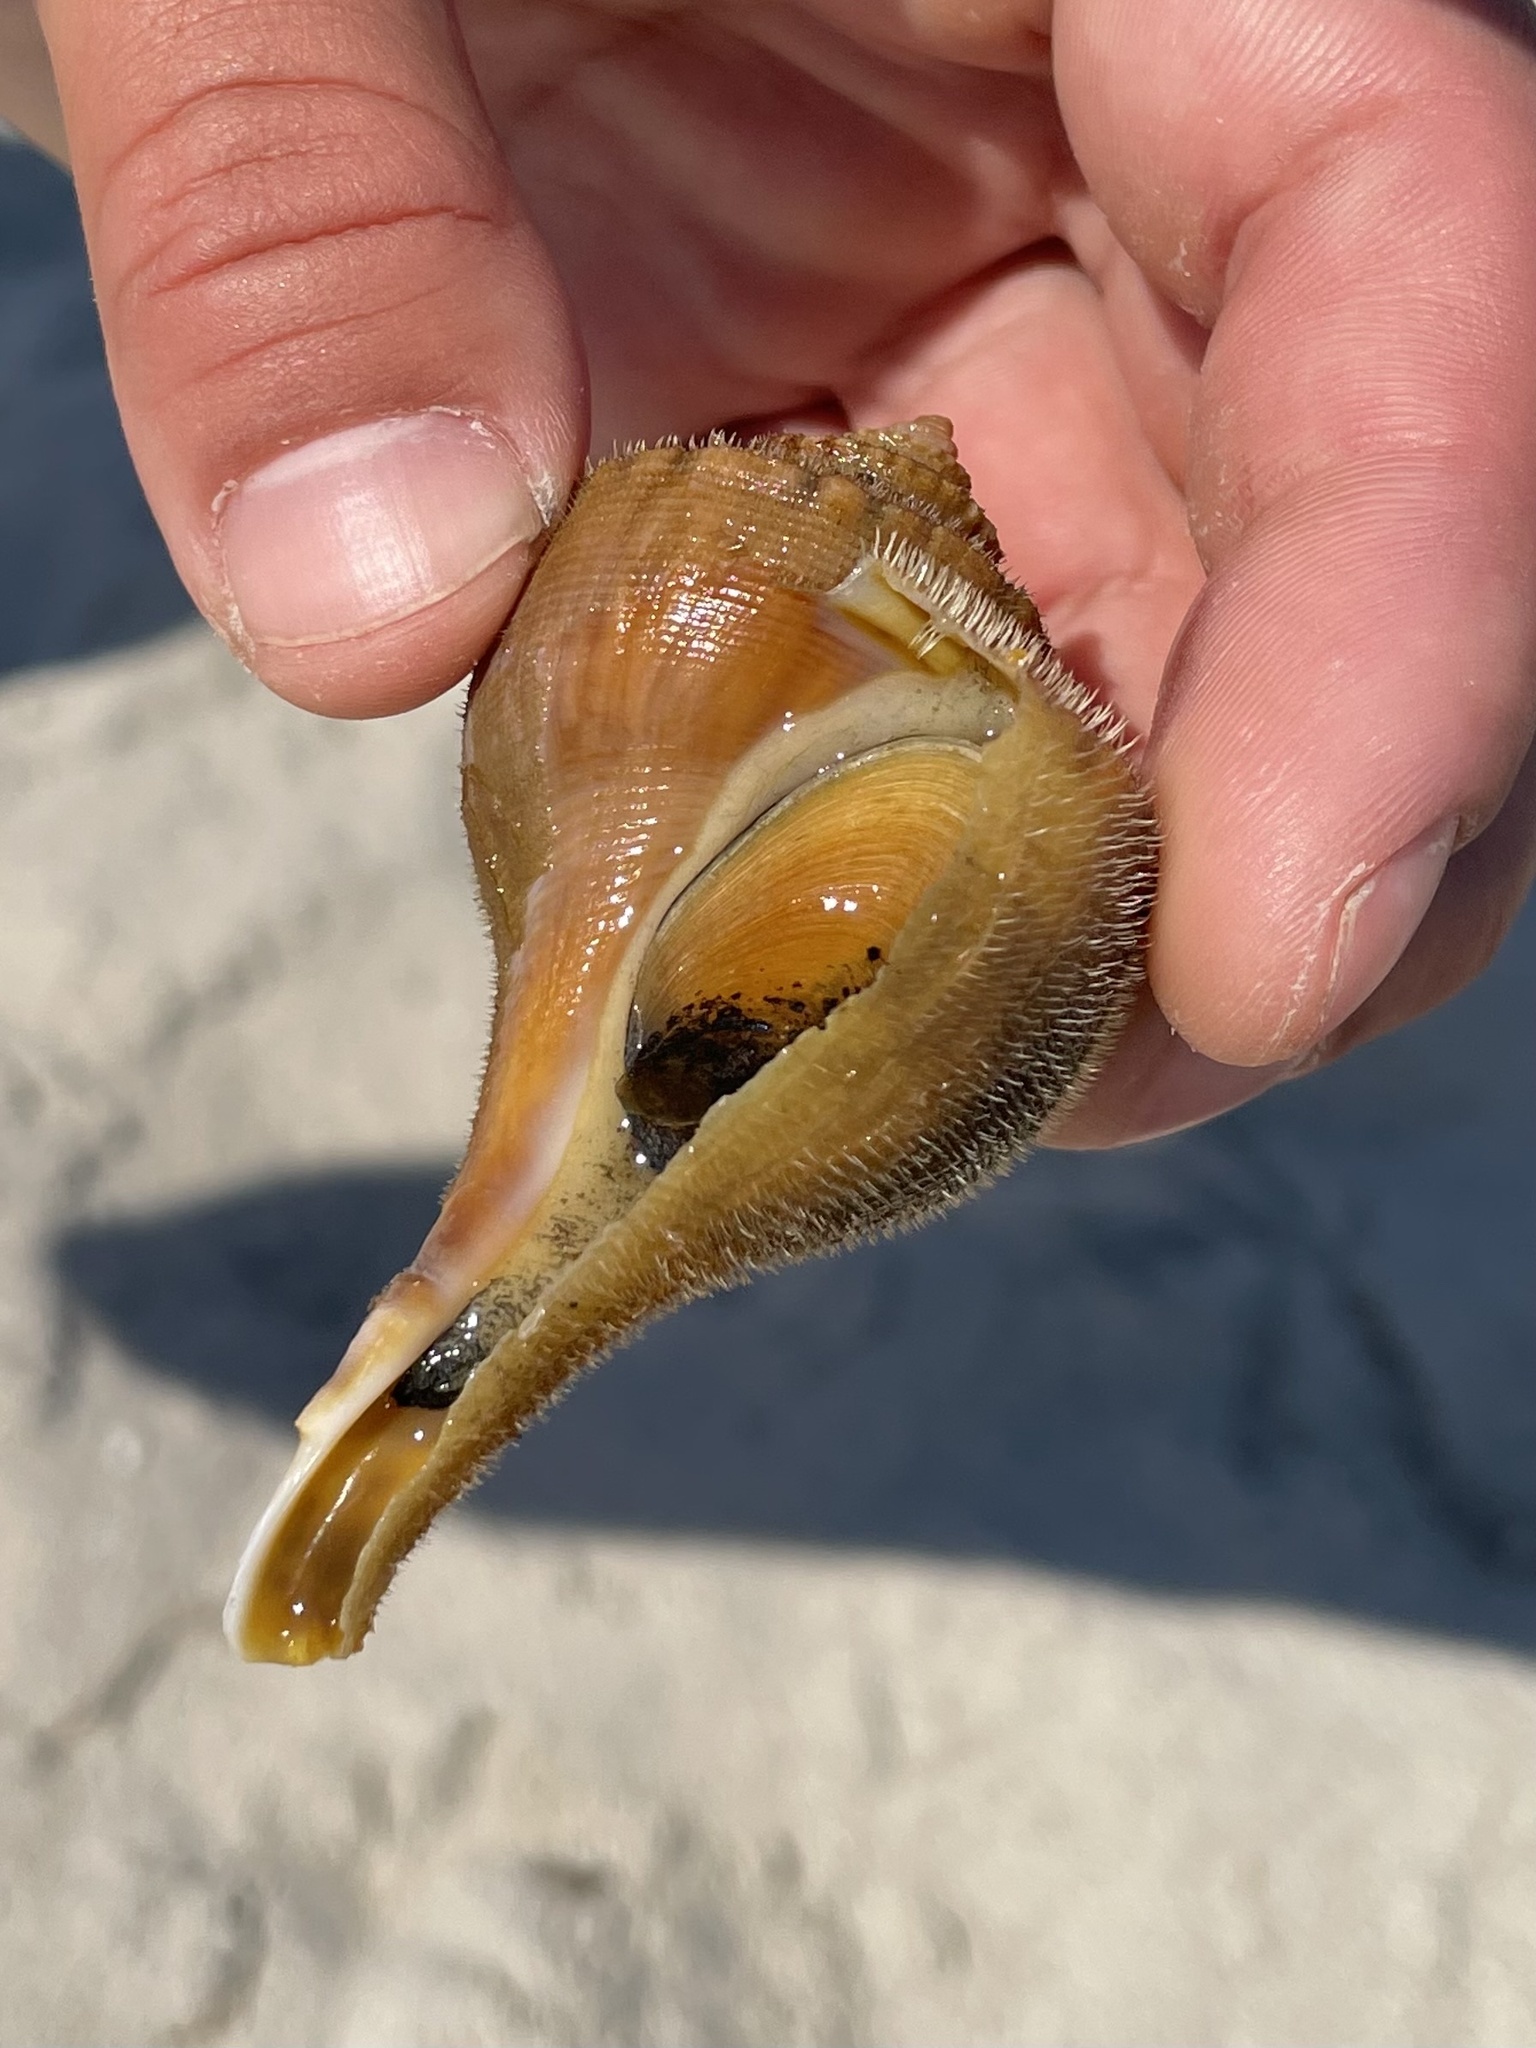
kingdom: Animalia
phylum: Mollusca
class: Gastropoda
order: Neogastropoda
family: Busyconidae
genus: Busycotypus
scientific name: Busycotypus canaliculatus
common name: Channeled whelk
